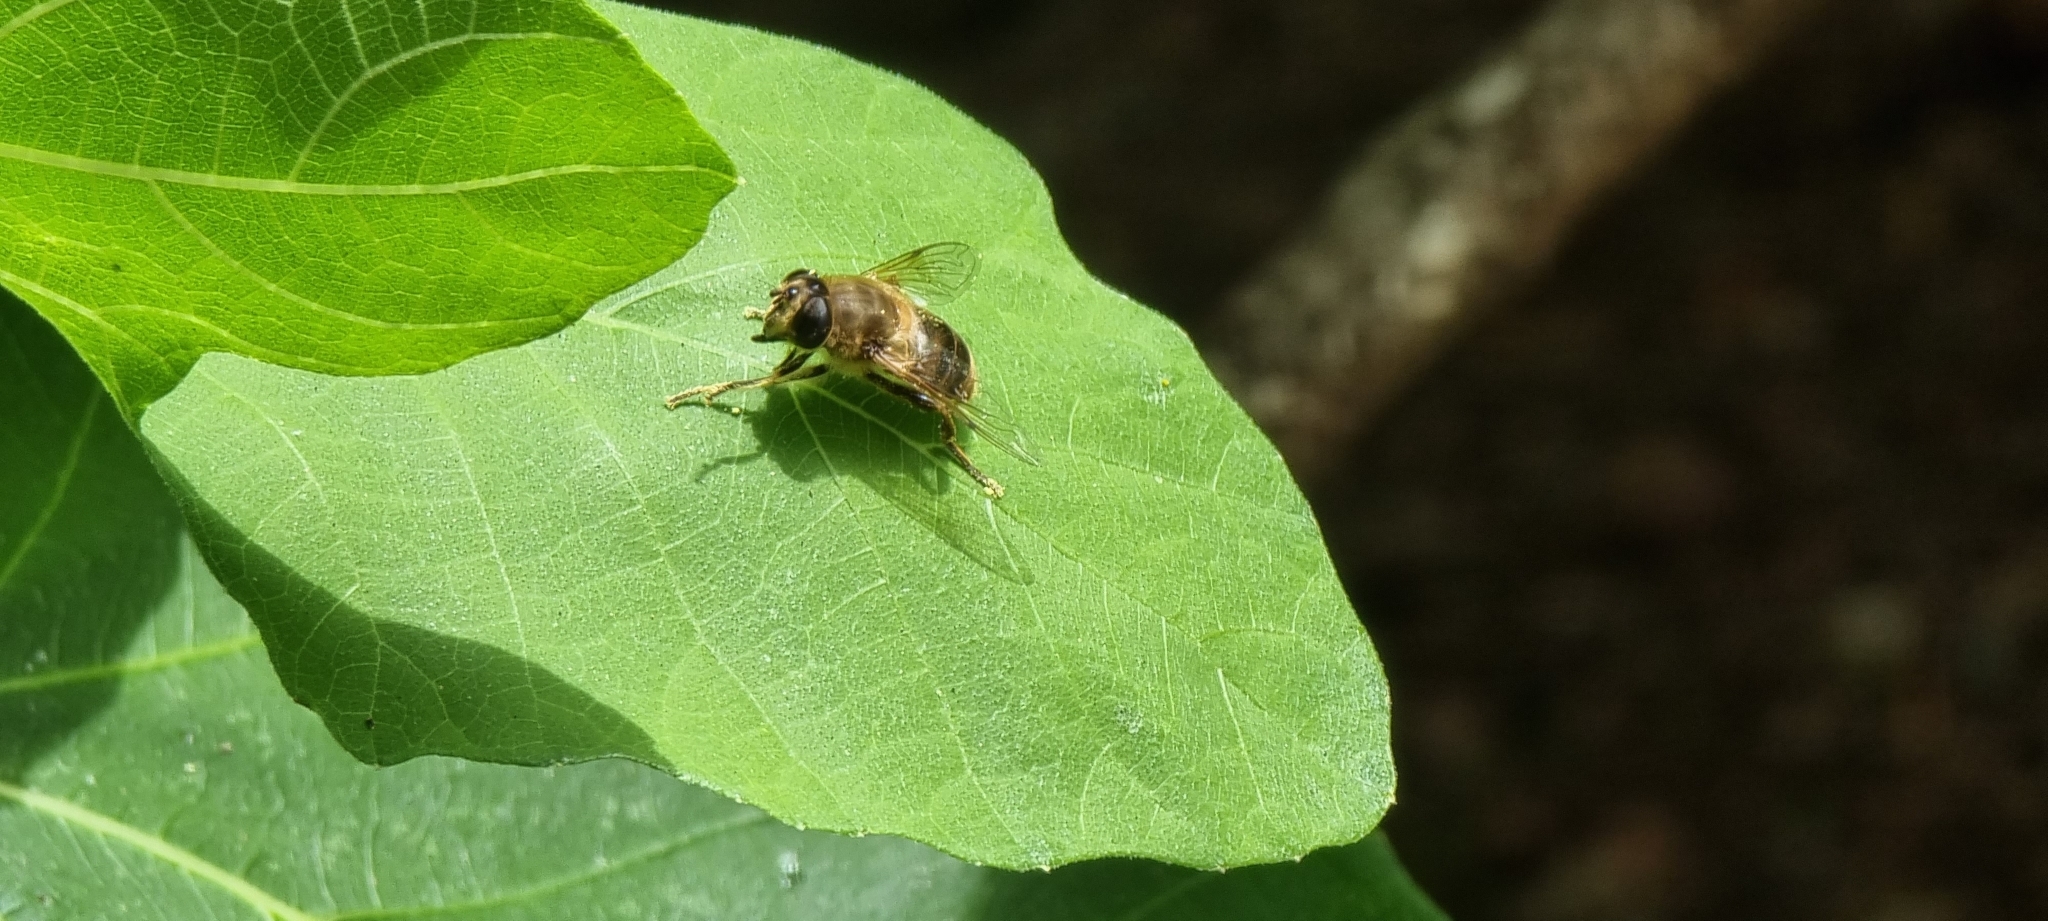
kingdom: Animalia
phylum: Arthropoda
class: Insecta
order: Diptera
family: Syrphidae
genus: Eristalis
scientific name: Eristalis tenax
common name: Drone fly
